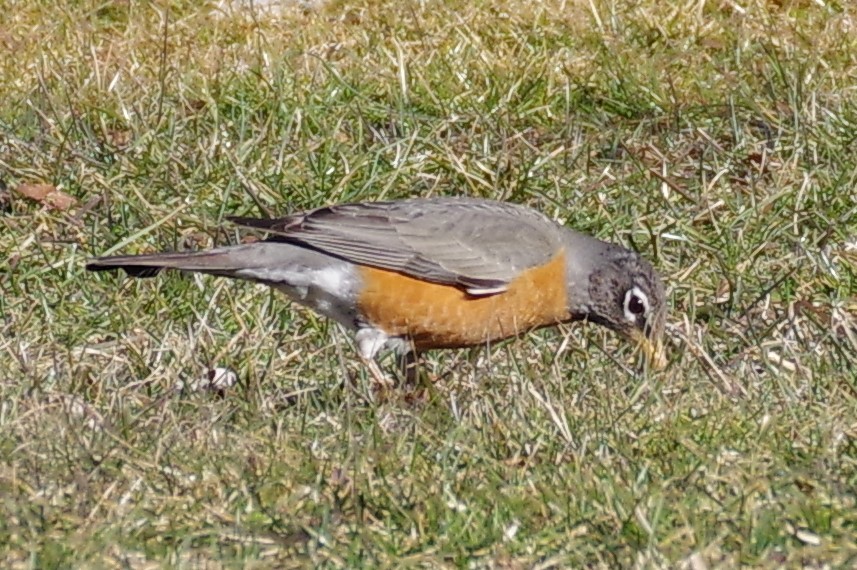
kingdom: Animalia
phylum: Chordata
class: Aves
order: Passeriformes
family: Turdidae
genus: Turdus
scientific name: Turdus migratorius
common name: American robin
